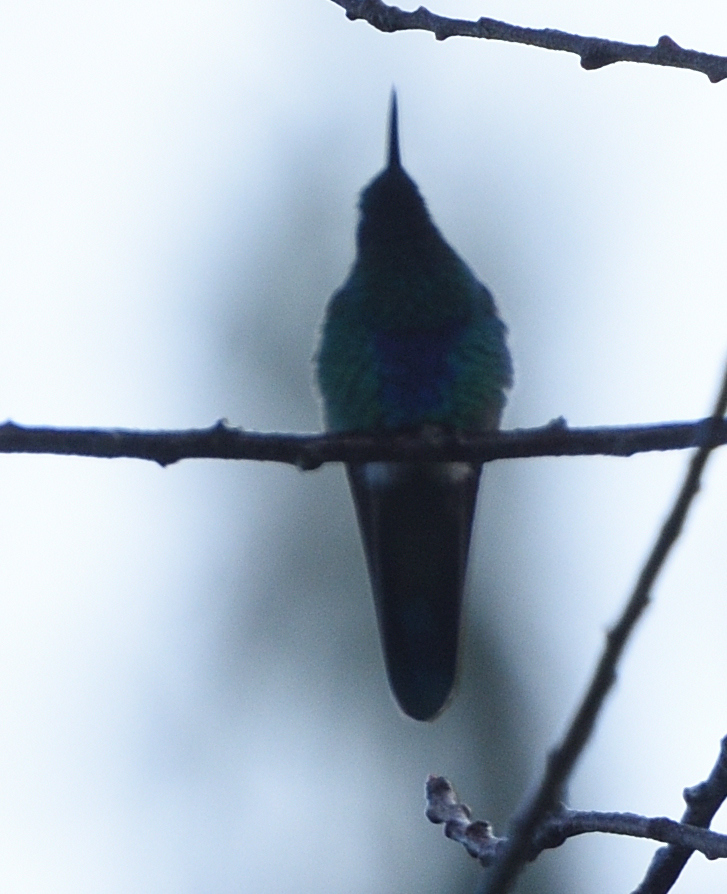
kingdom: Animalia
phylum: Chordata
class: Aves
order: Apodiformes
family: Trochilidae
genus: Colibri
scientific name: Colibri coruscans
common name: Sparkling violetear
